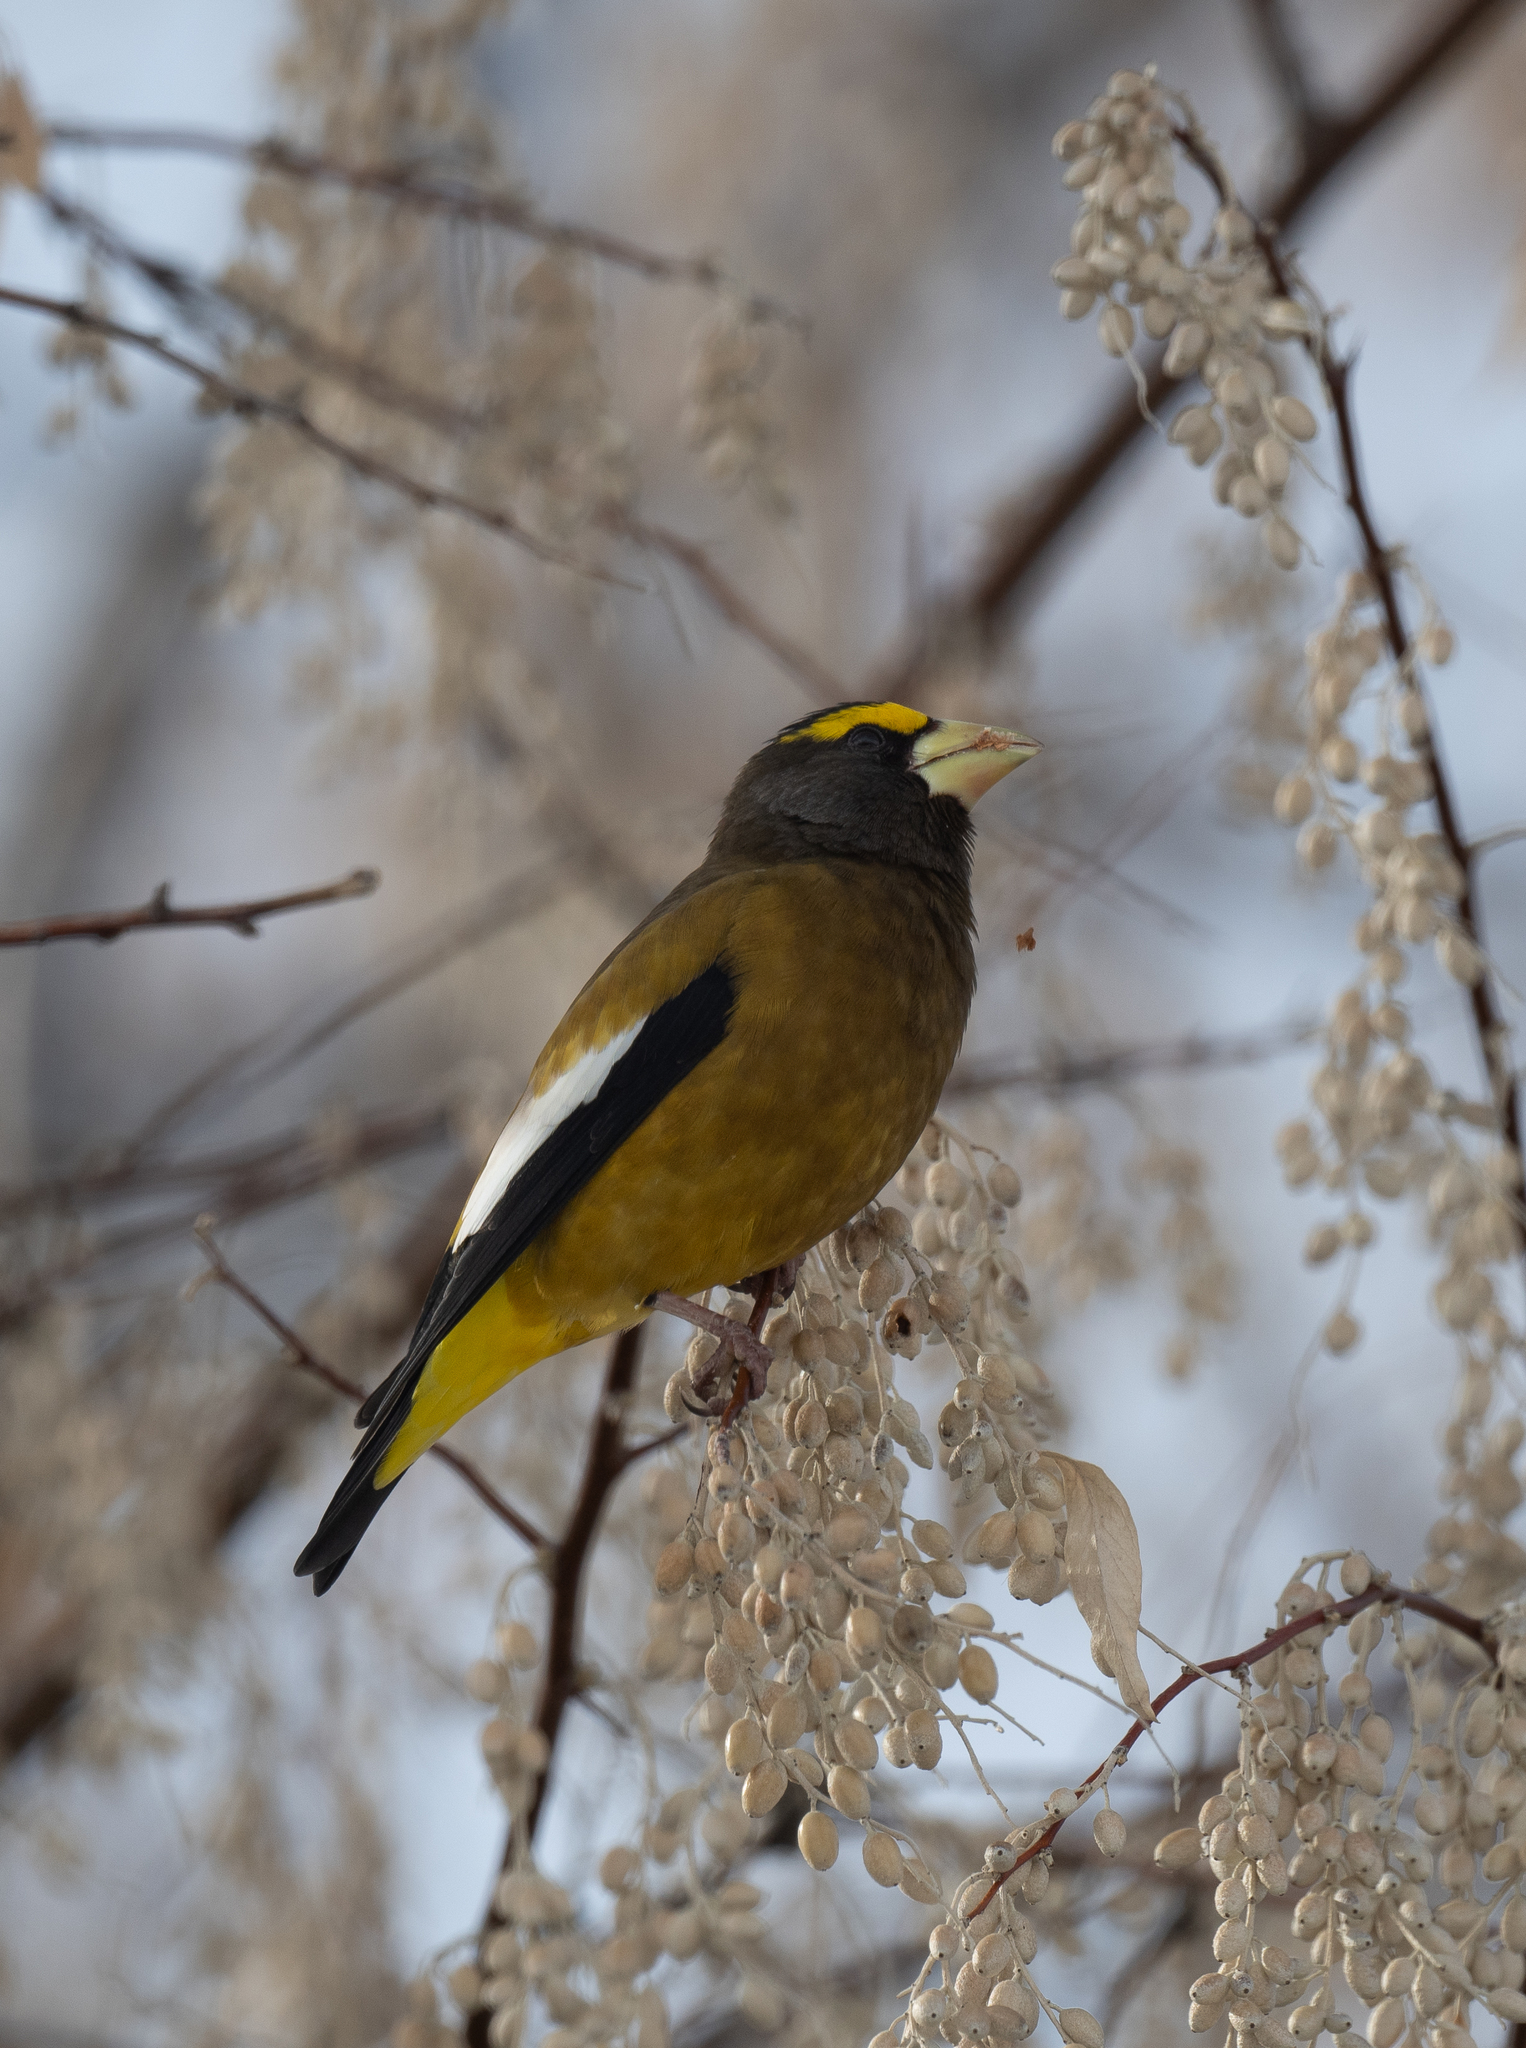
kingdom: Animalia
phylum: Chordata
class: Aves
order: Passeriformes
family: Fringillidae
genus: Hesperiphona
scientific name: Hesperiphona vespertina
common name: Evening grosbeak
